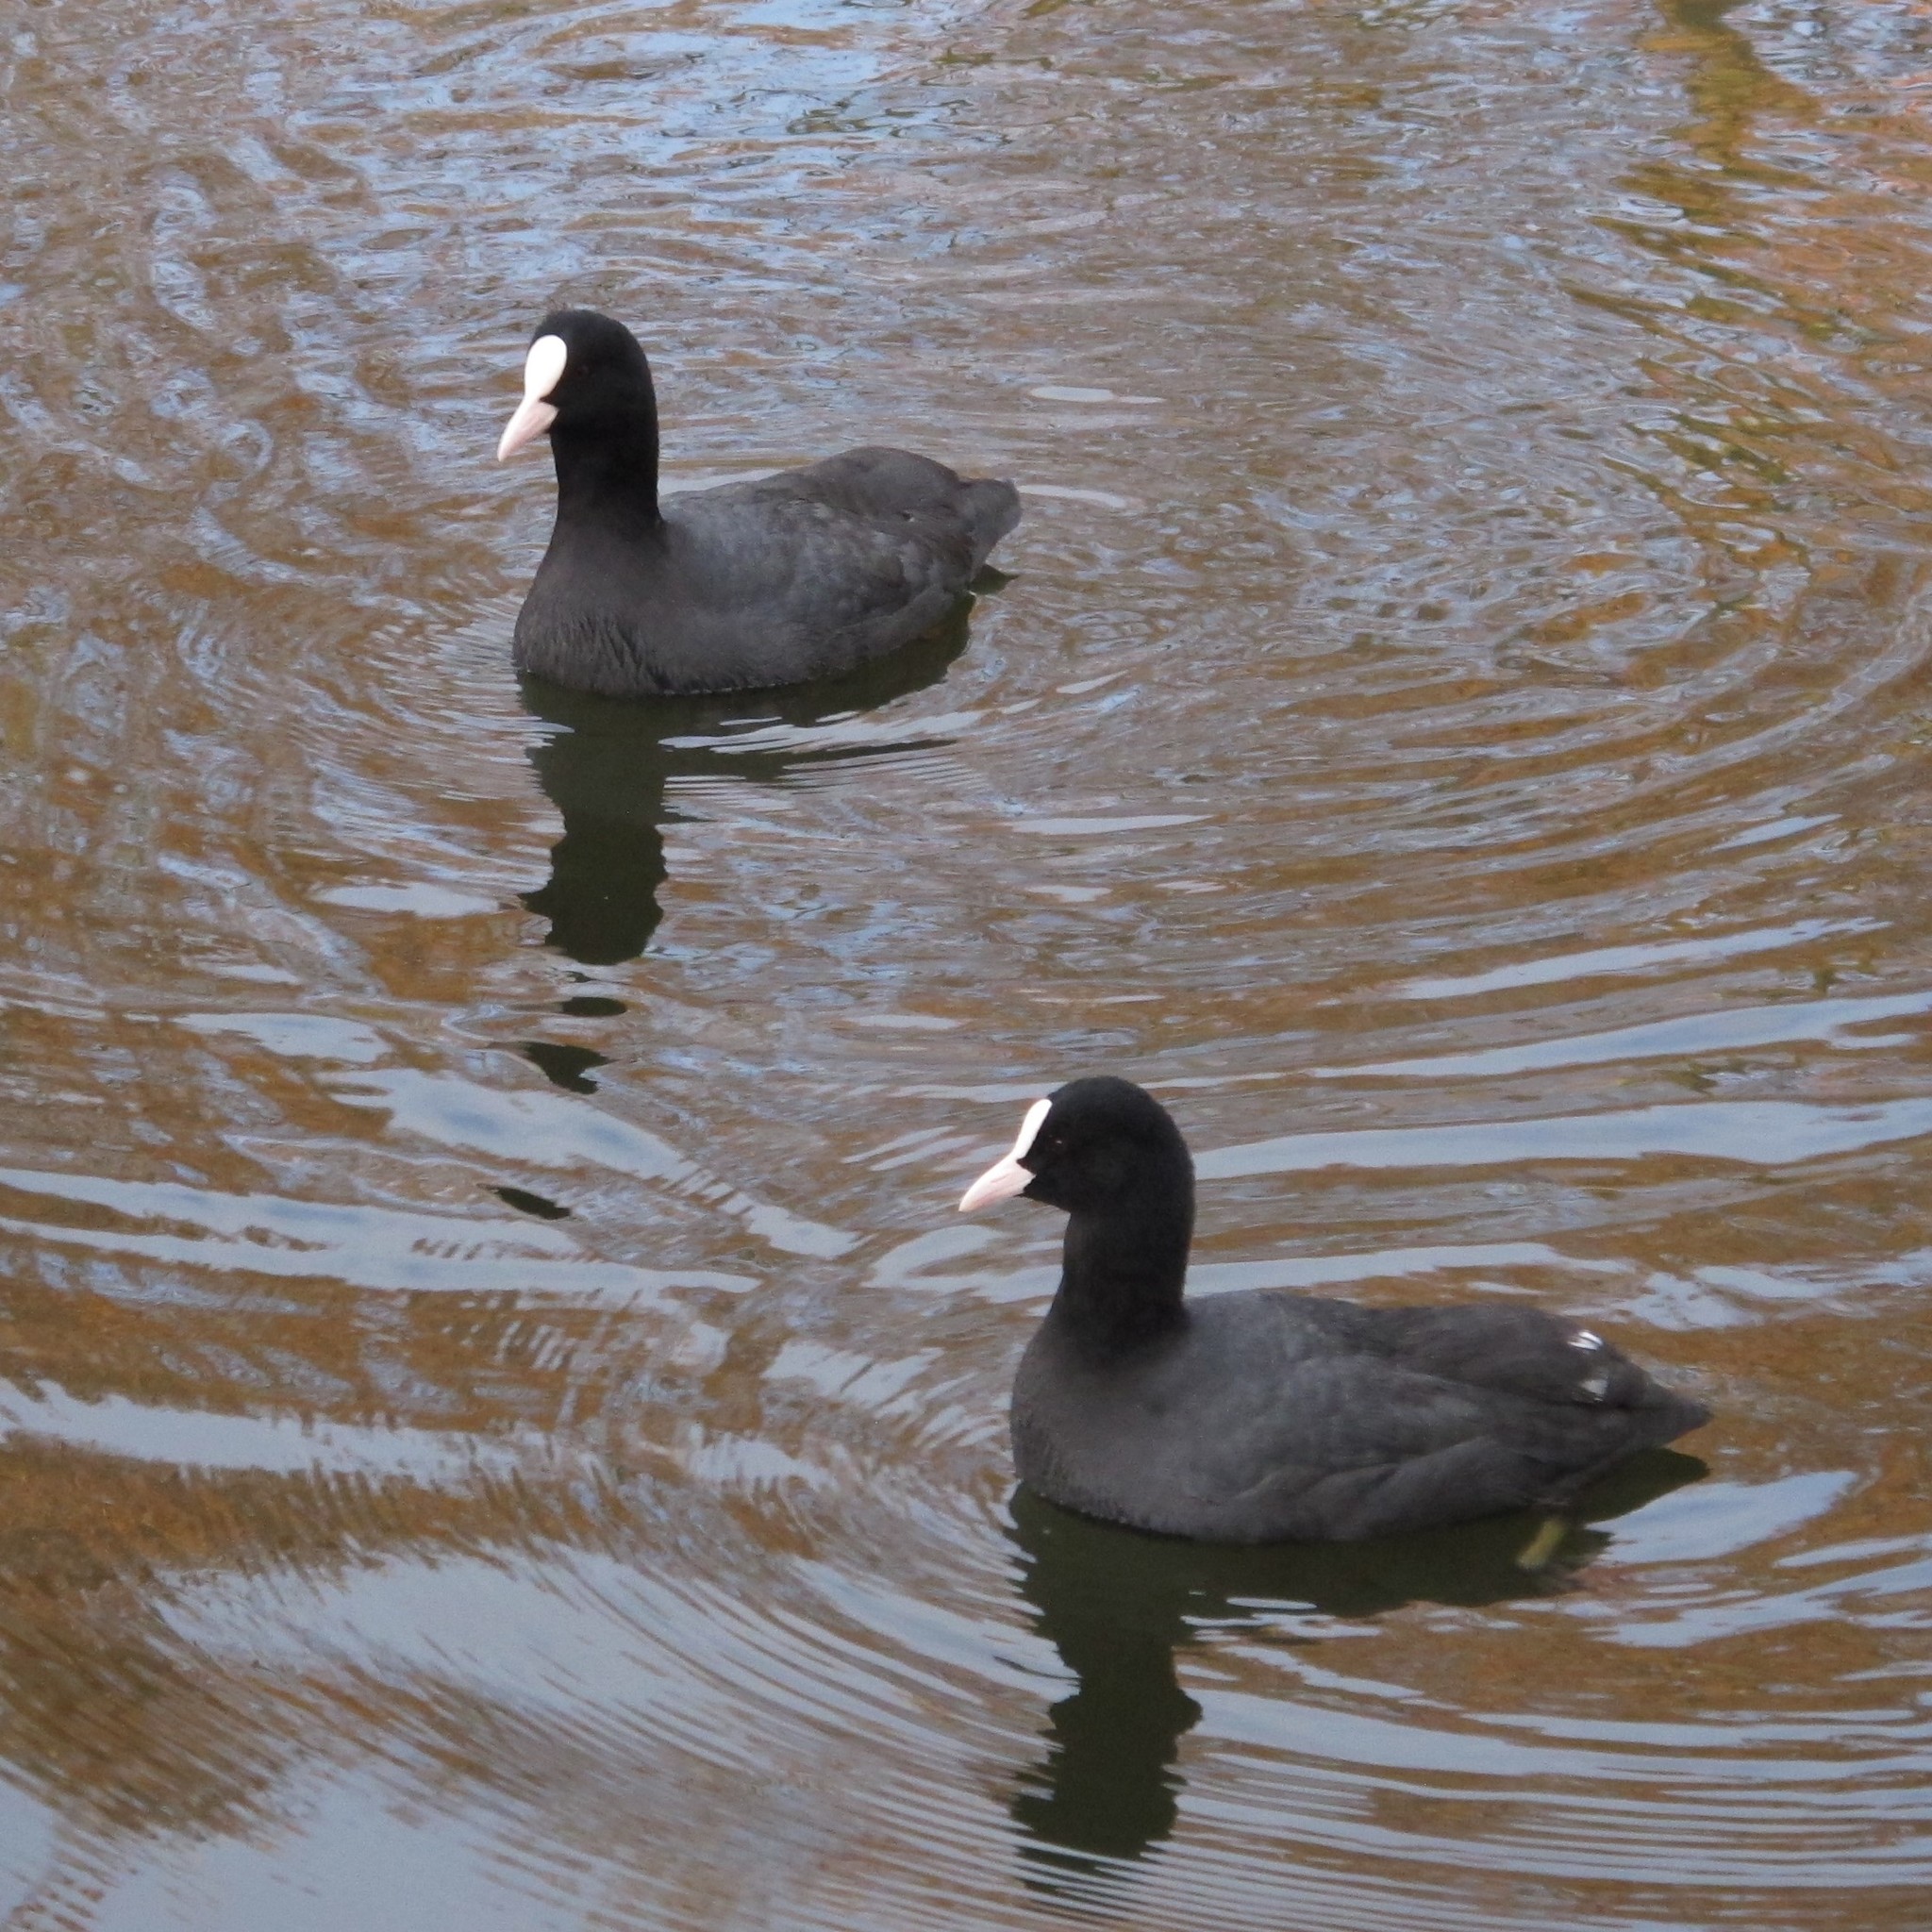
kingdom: Animalia
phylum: Chordata
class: Aves
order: Gruiformes
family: Rallidae
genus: Fulica
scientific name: Fulica atra
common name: Eurasian coot
